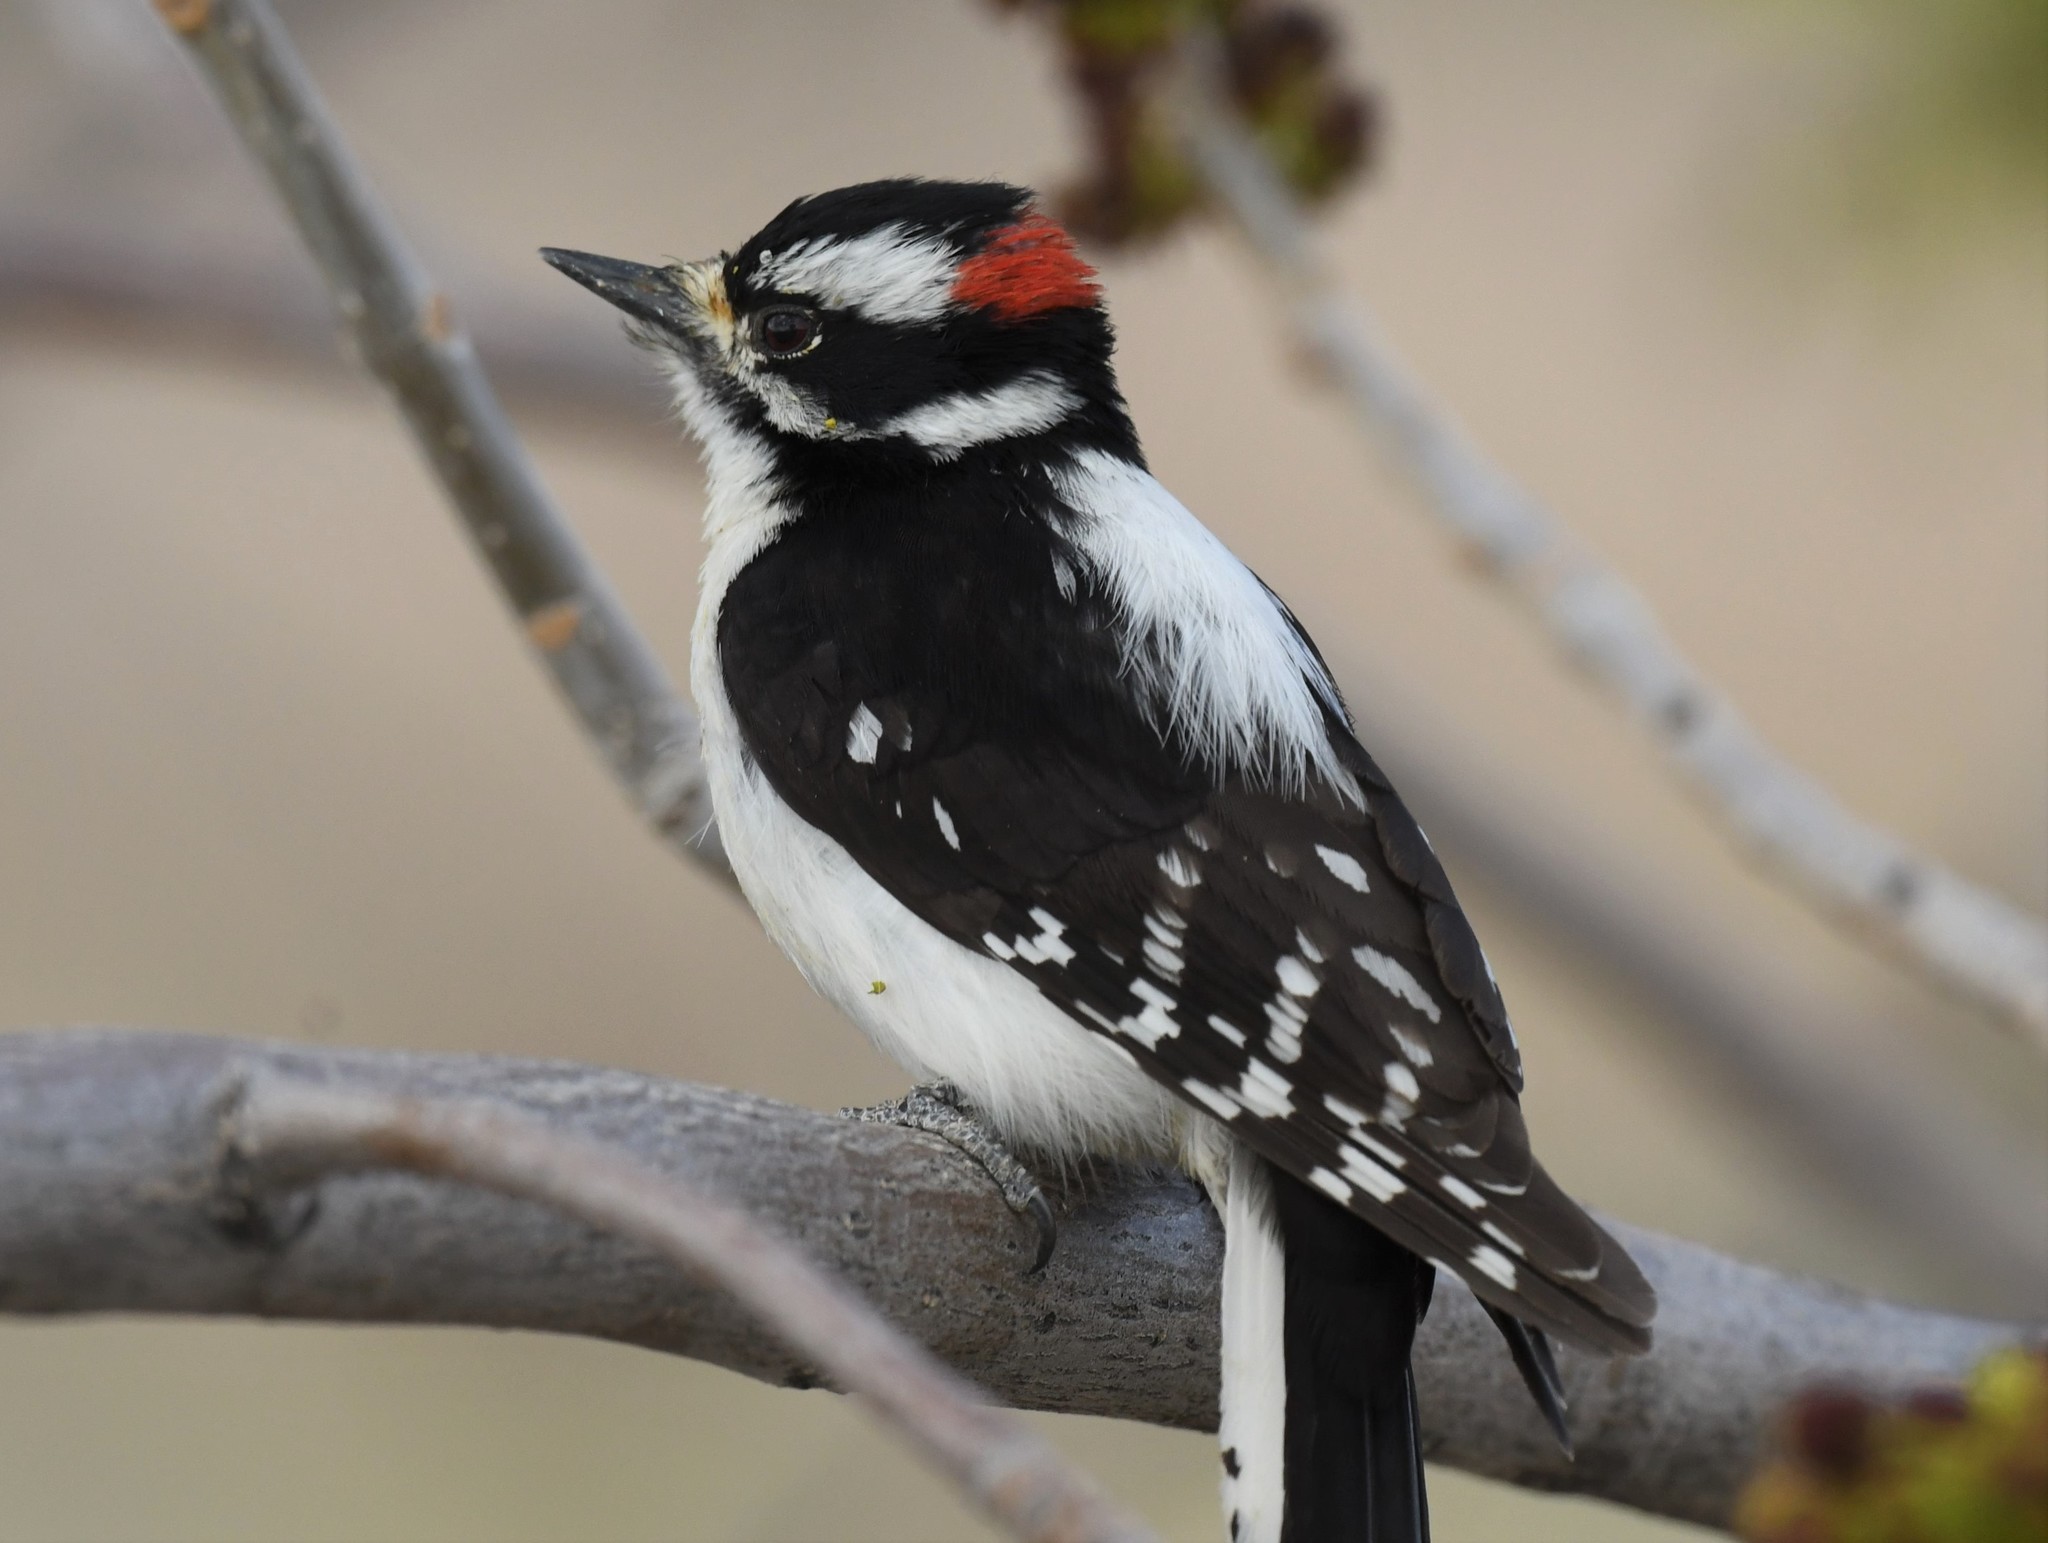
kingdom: Animalia
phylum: Chordata
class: Aves
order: Piciformes
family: Picidae
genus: Dryobates
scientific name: Dryobates pubescens
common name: Downy woodpecker
